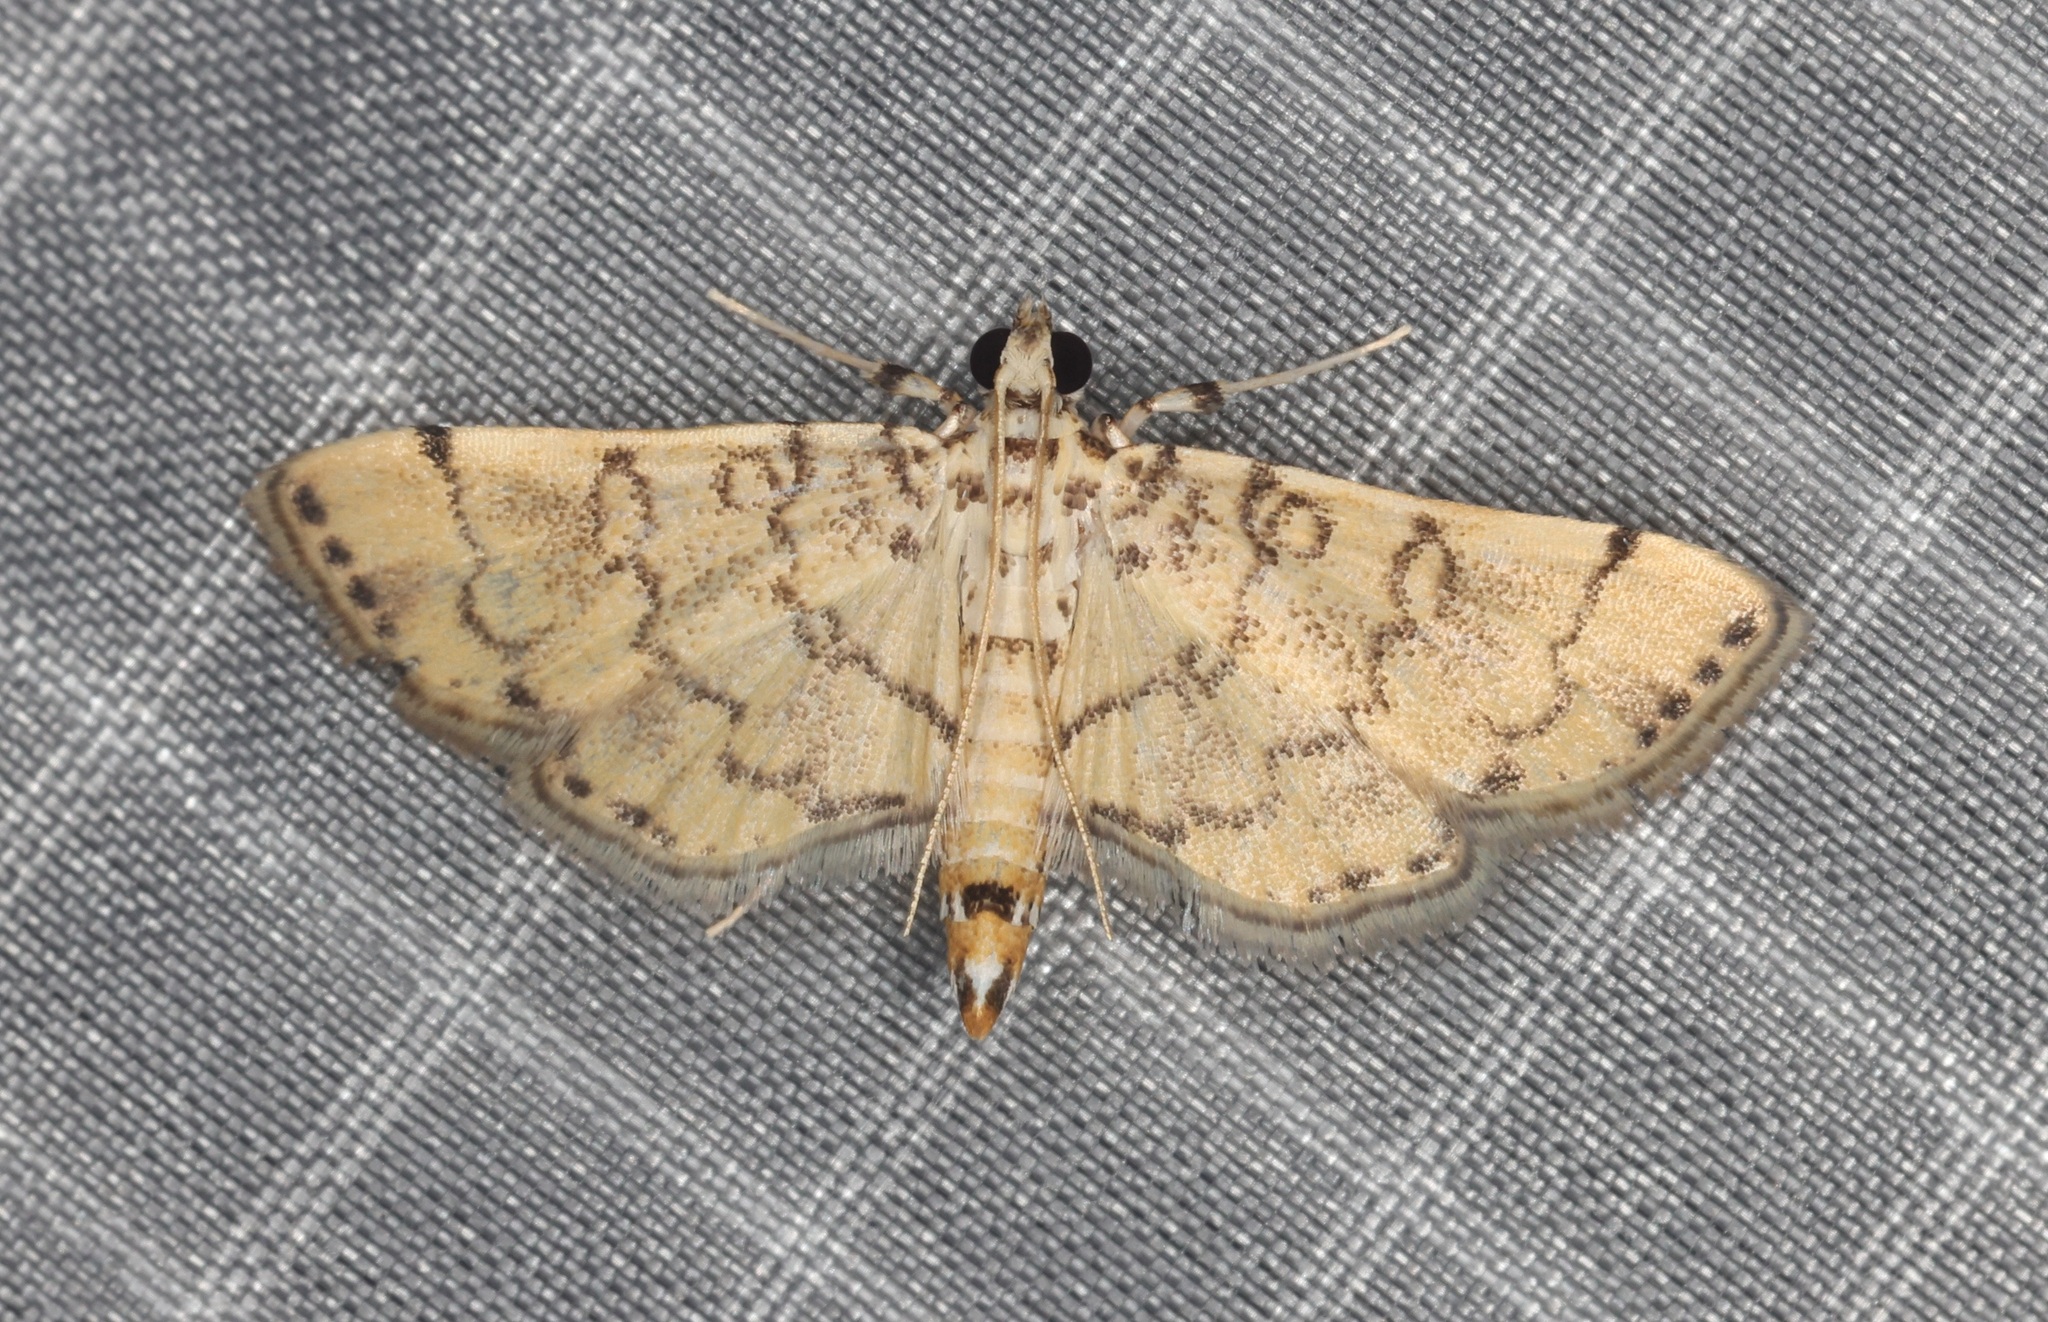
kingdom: Animalia
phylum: Arthropoda
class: Insecta
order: Lepidoptera
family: Crambidae
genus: Lamprosema
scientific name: Lamprosema tampiusalis
